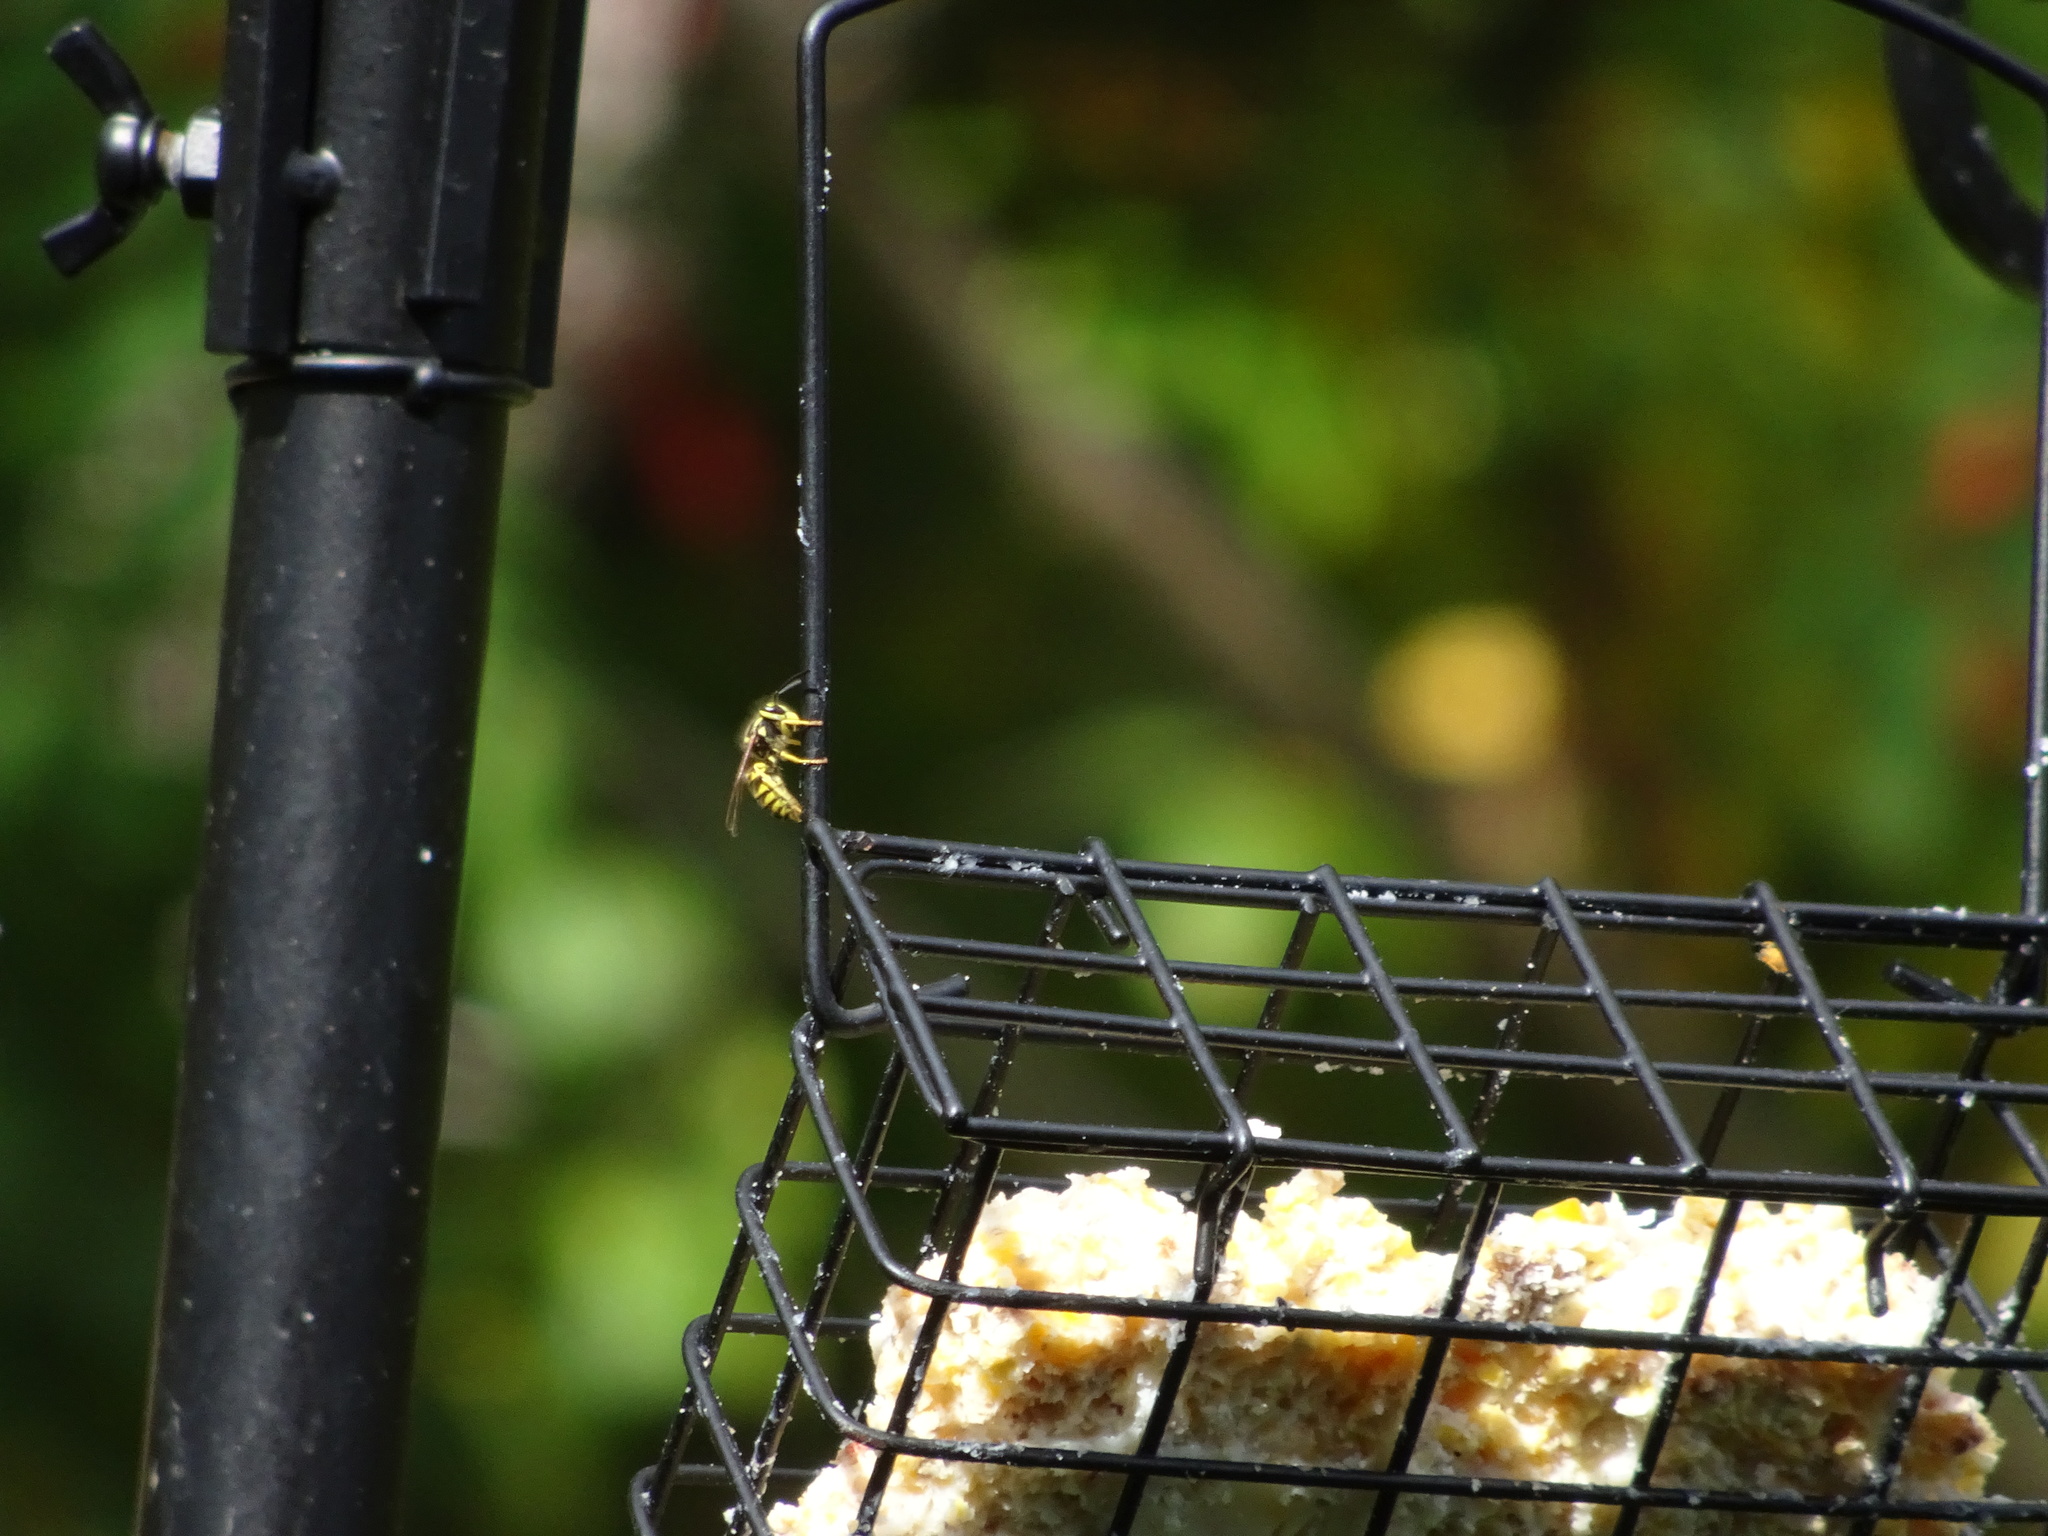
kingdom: Animalia
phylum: Arthropoda
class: Insecta
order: Hymenoptera
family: Vespidae
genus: Vespula
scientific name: Vespula
